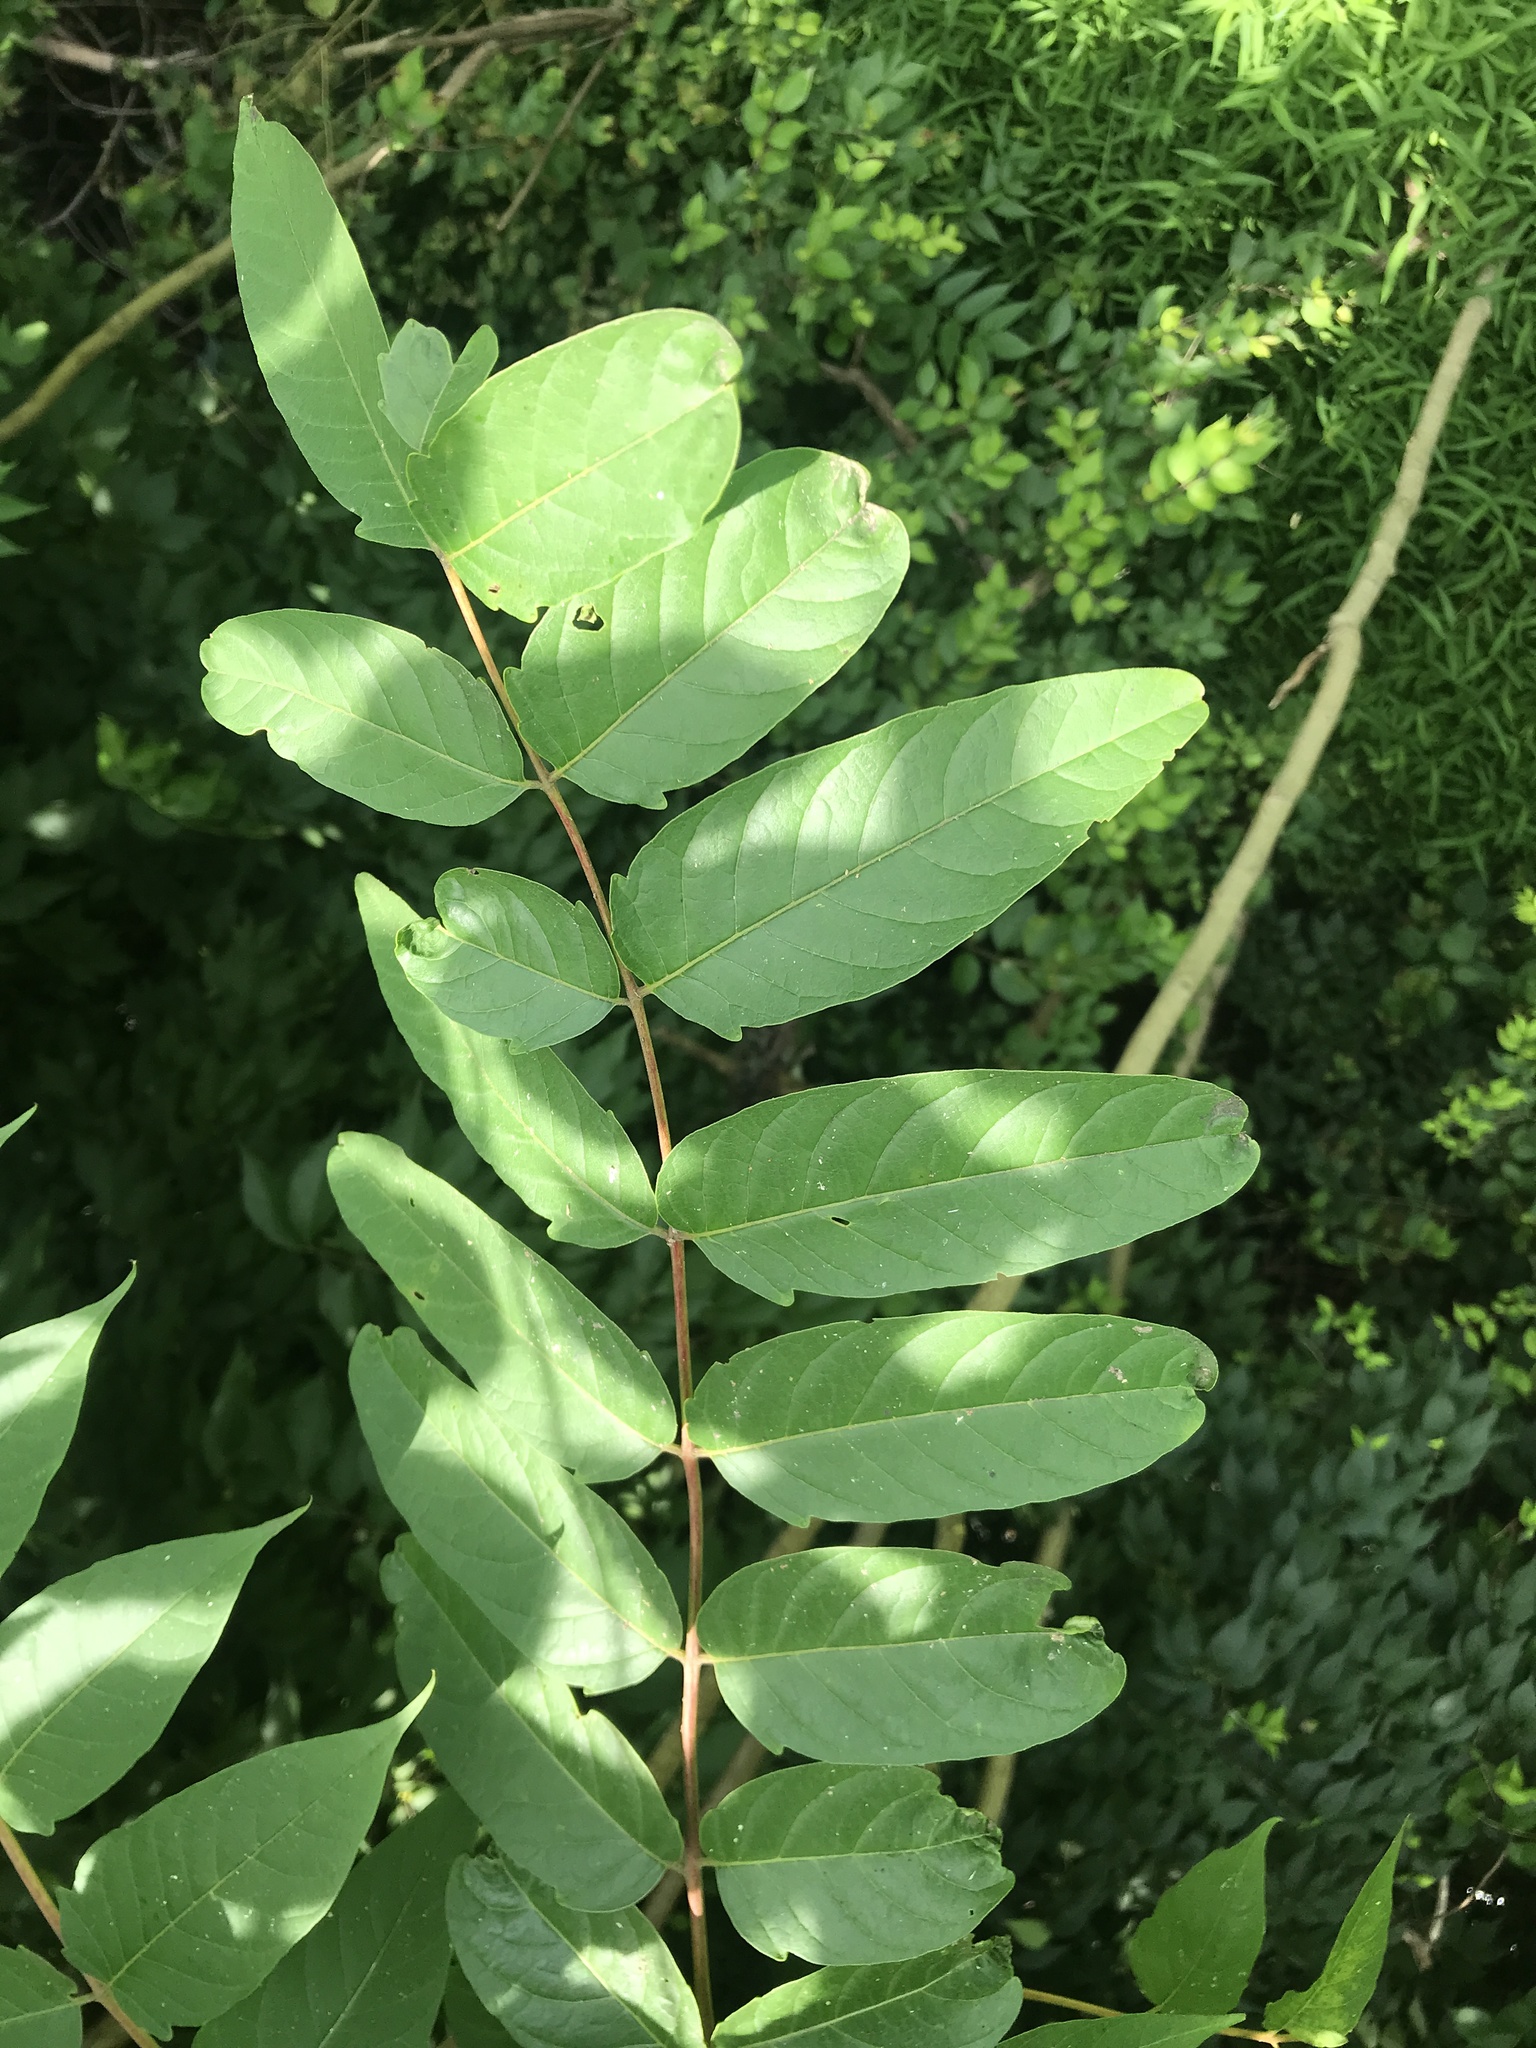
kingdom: Plantae
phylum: Tracheophyta
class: Magnoliopsida
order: Sapindales
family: Simaroubaceae
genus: Ailanthus
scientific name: Ailanthus altissima
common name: Tree-of-heaven
